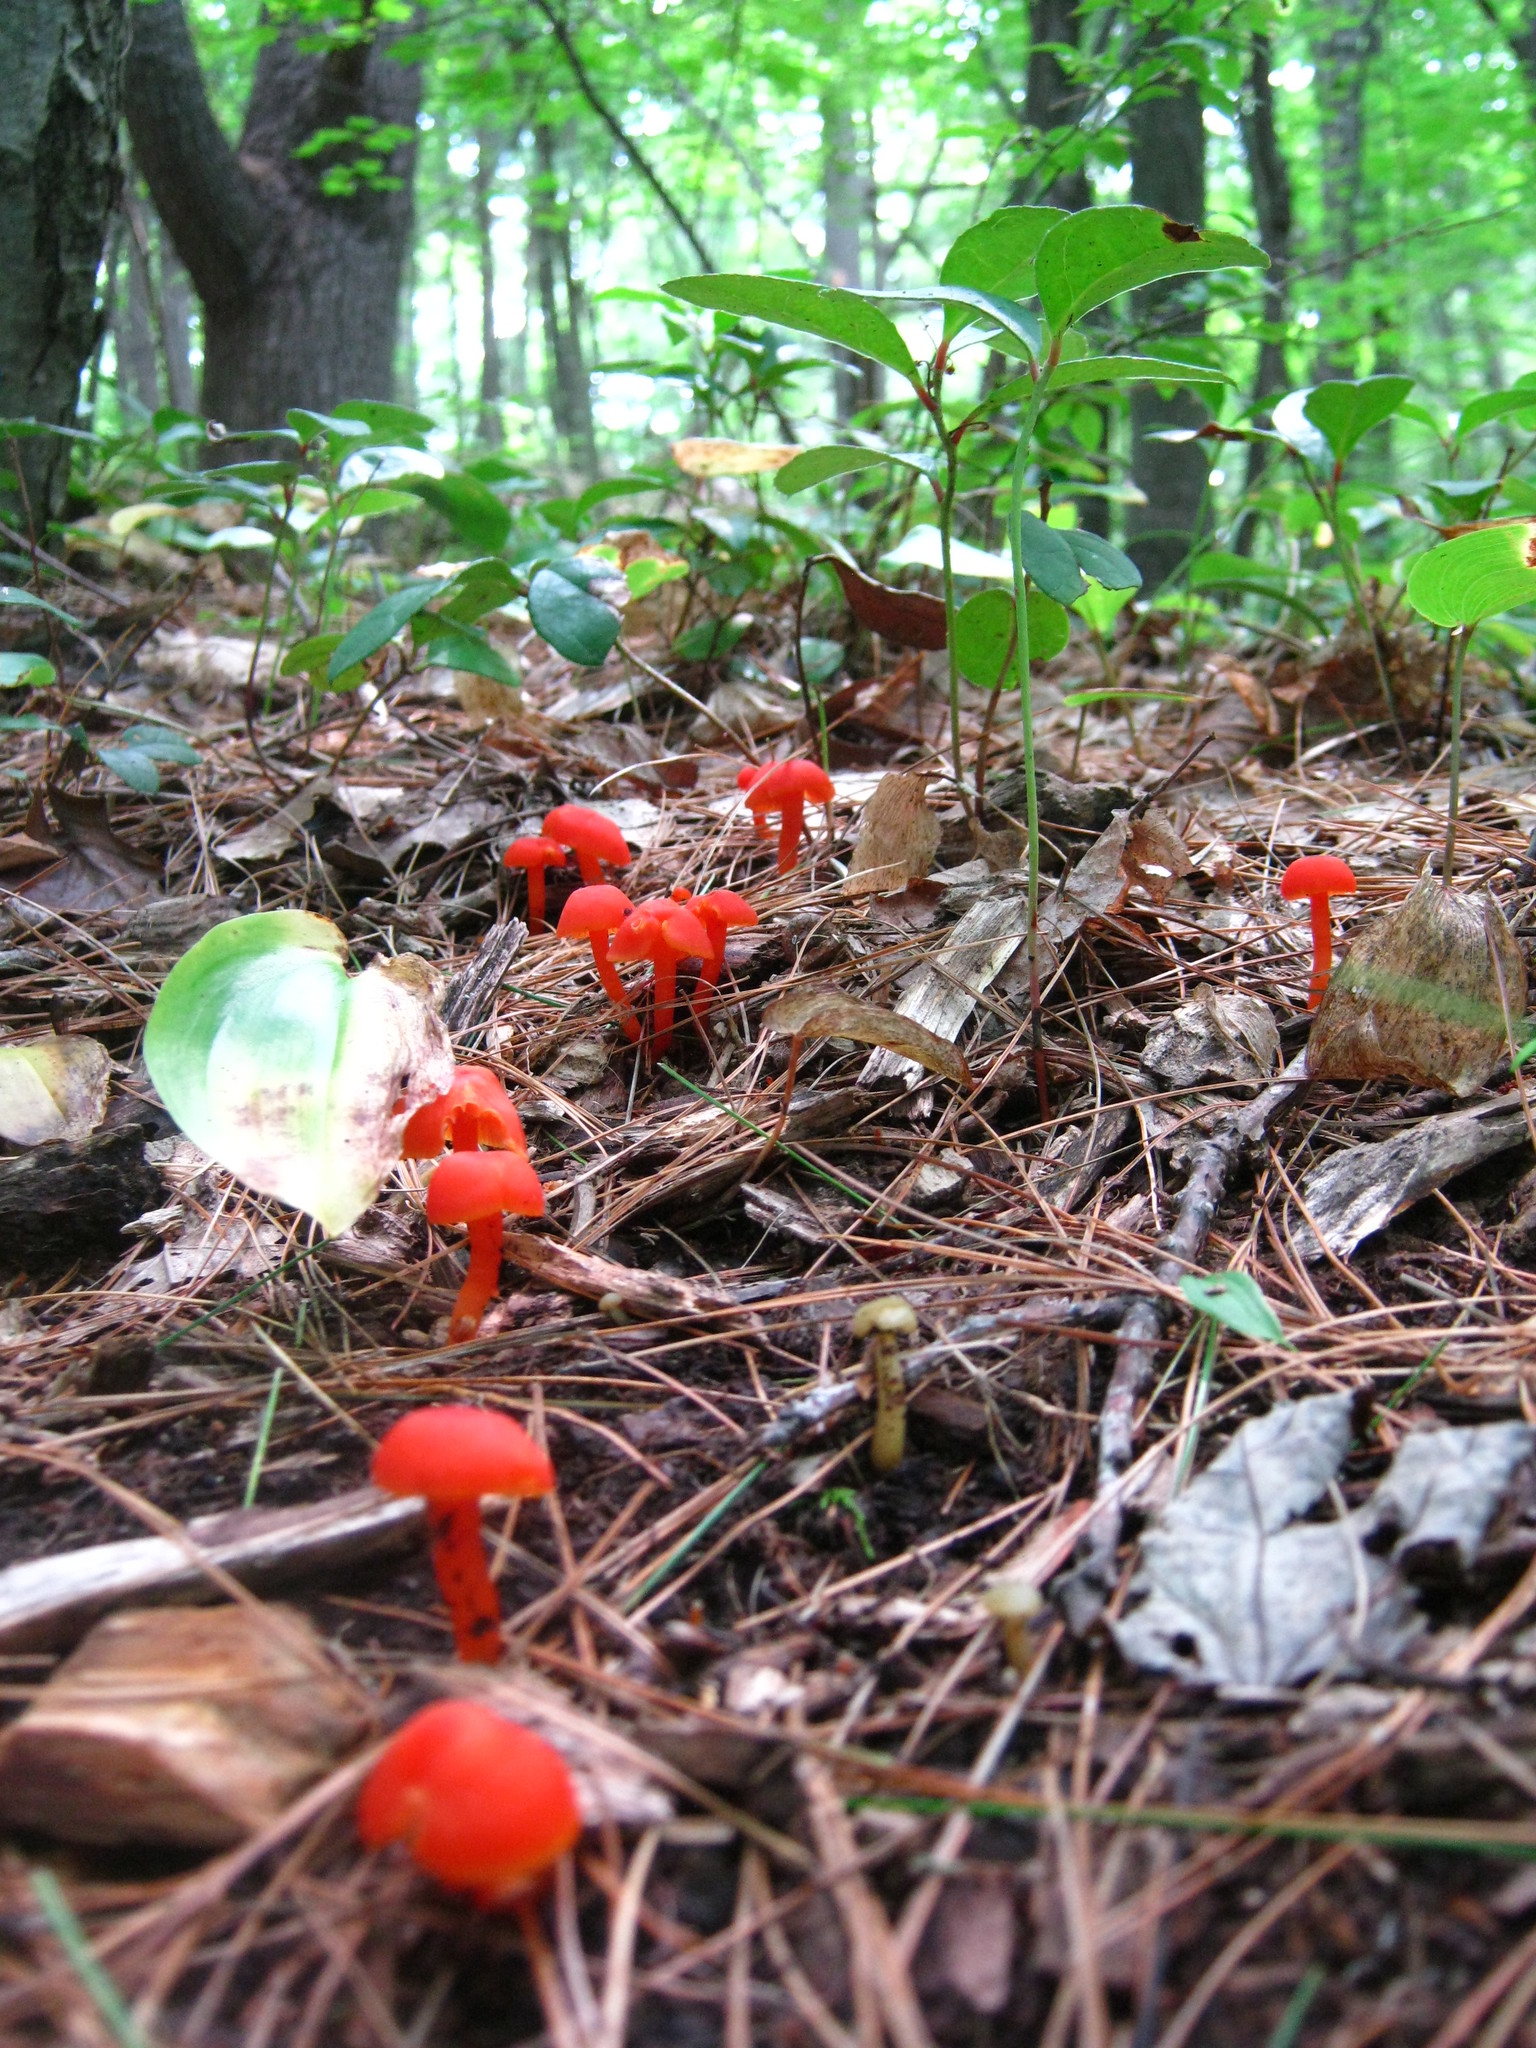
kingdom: Fungi
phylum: Basidiomycota
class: Agaricomycetes
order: Agaricales
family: Hygrophoraceae
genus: Hygrocybe
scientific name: Hygrocybe miniata
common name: Vermilion waxcap
